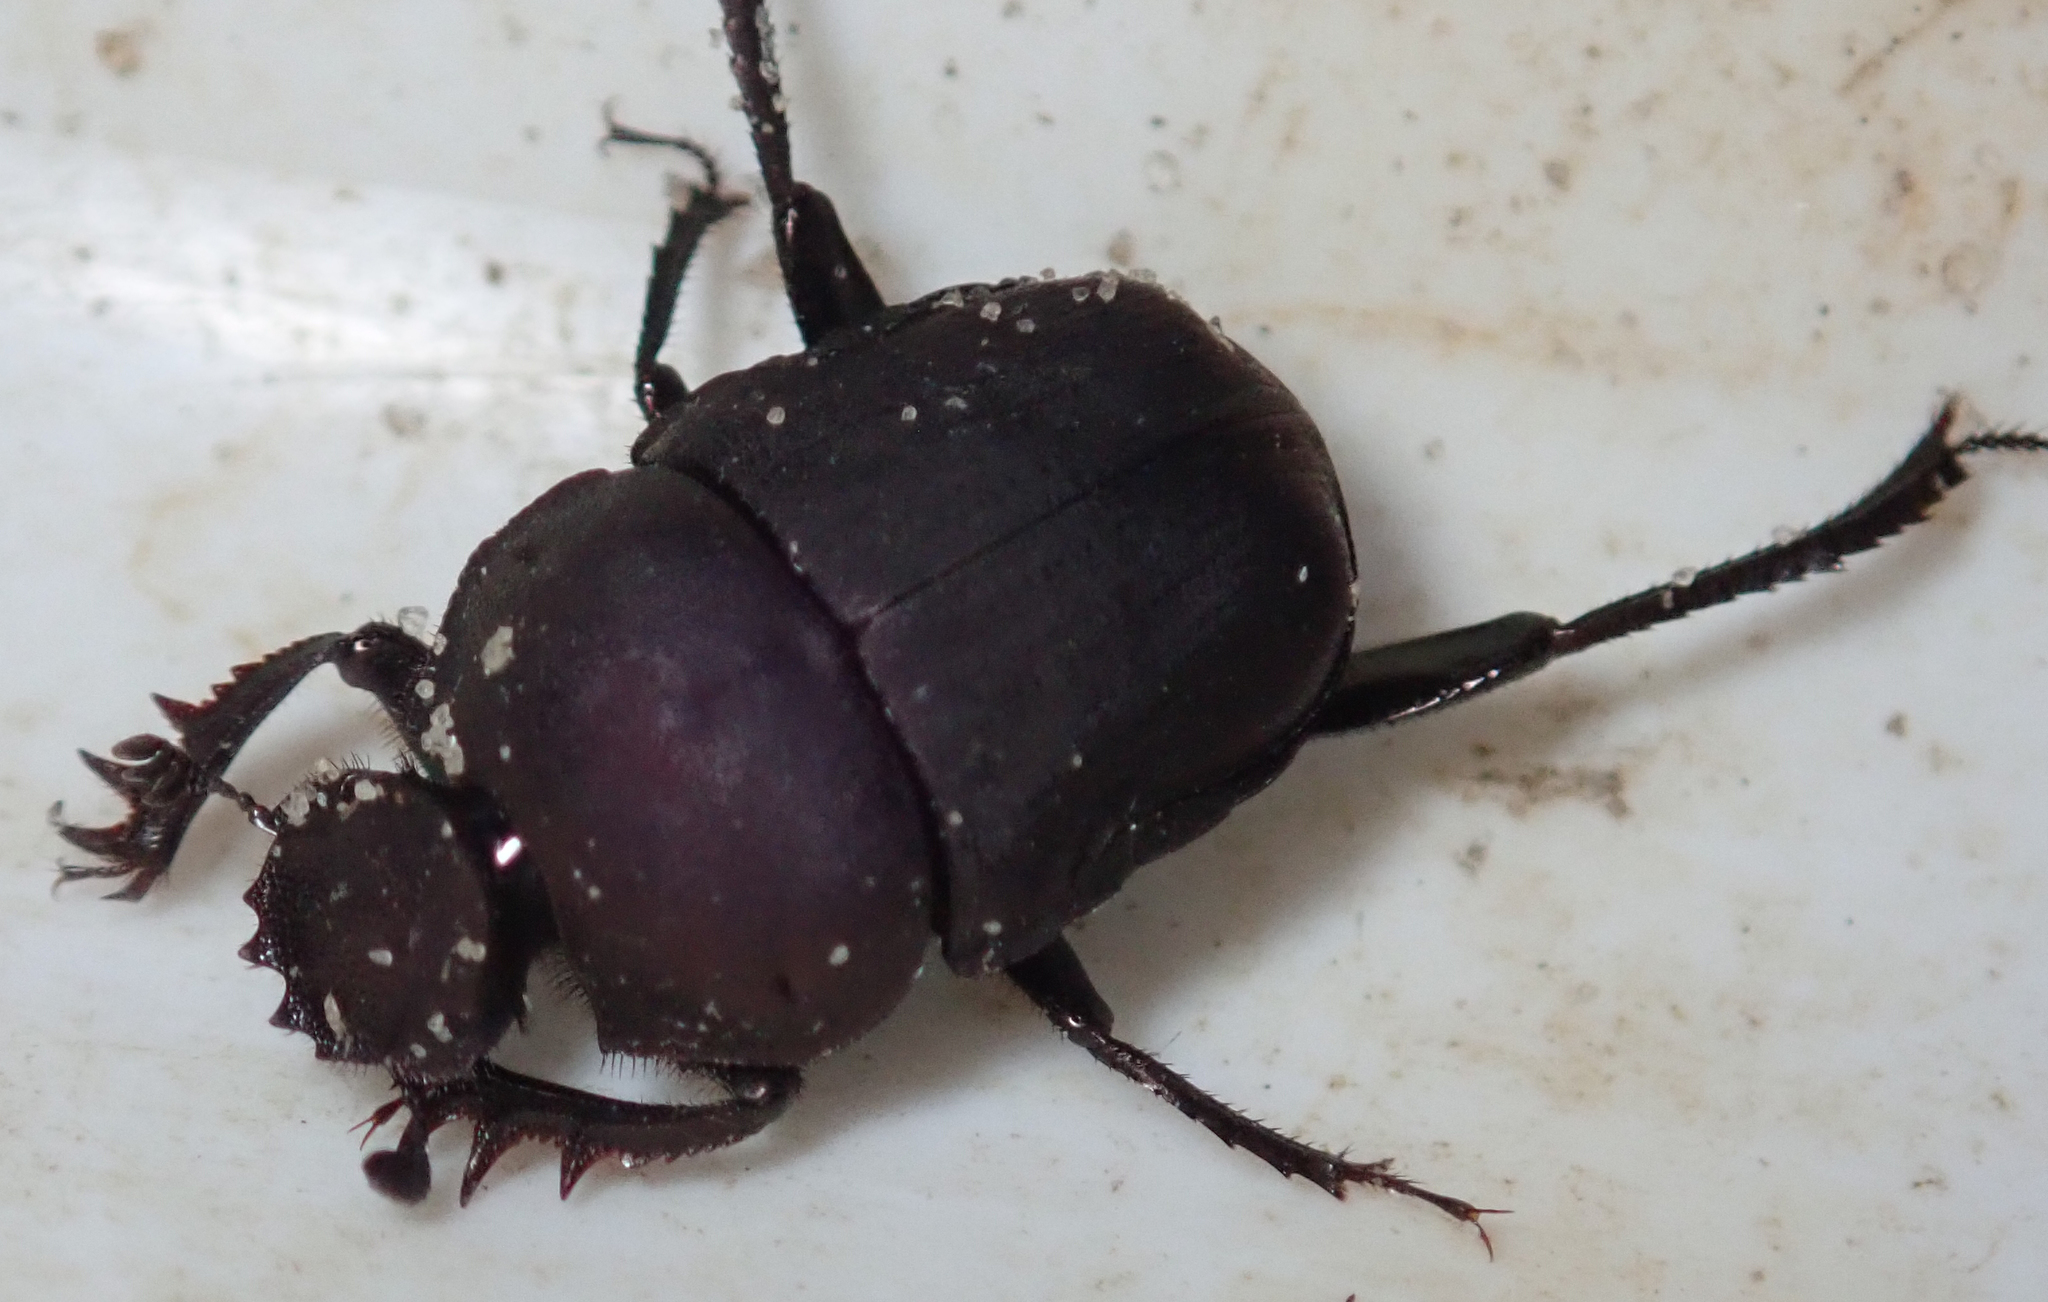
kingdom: Animalia
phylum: Arthropoda
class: Insecta
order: Coleoptera
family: Scarabaeidae
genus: Allogymnopleurus
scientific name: Allogymnopleurus splendidus
